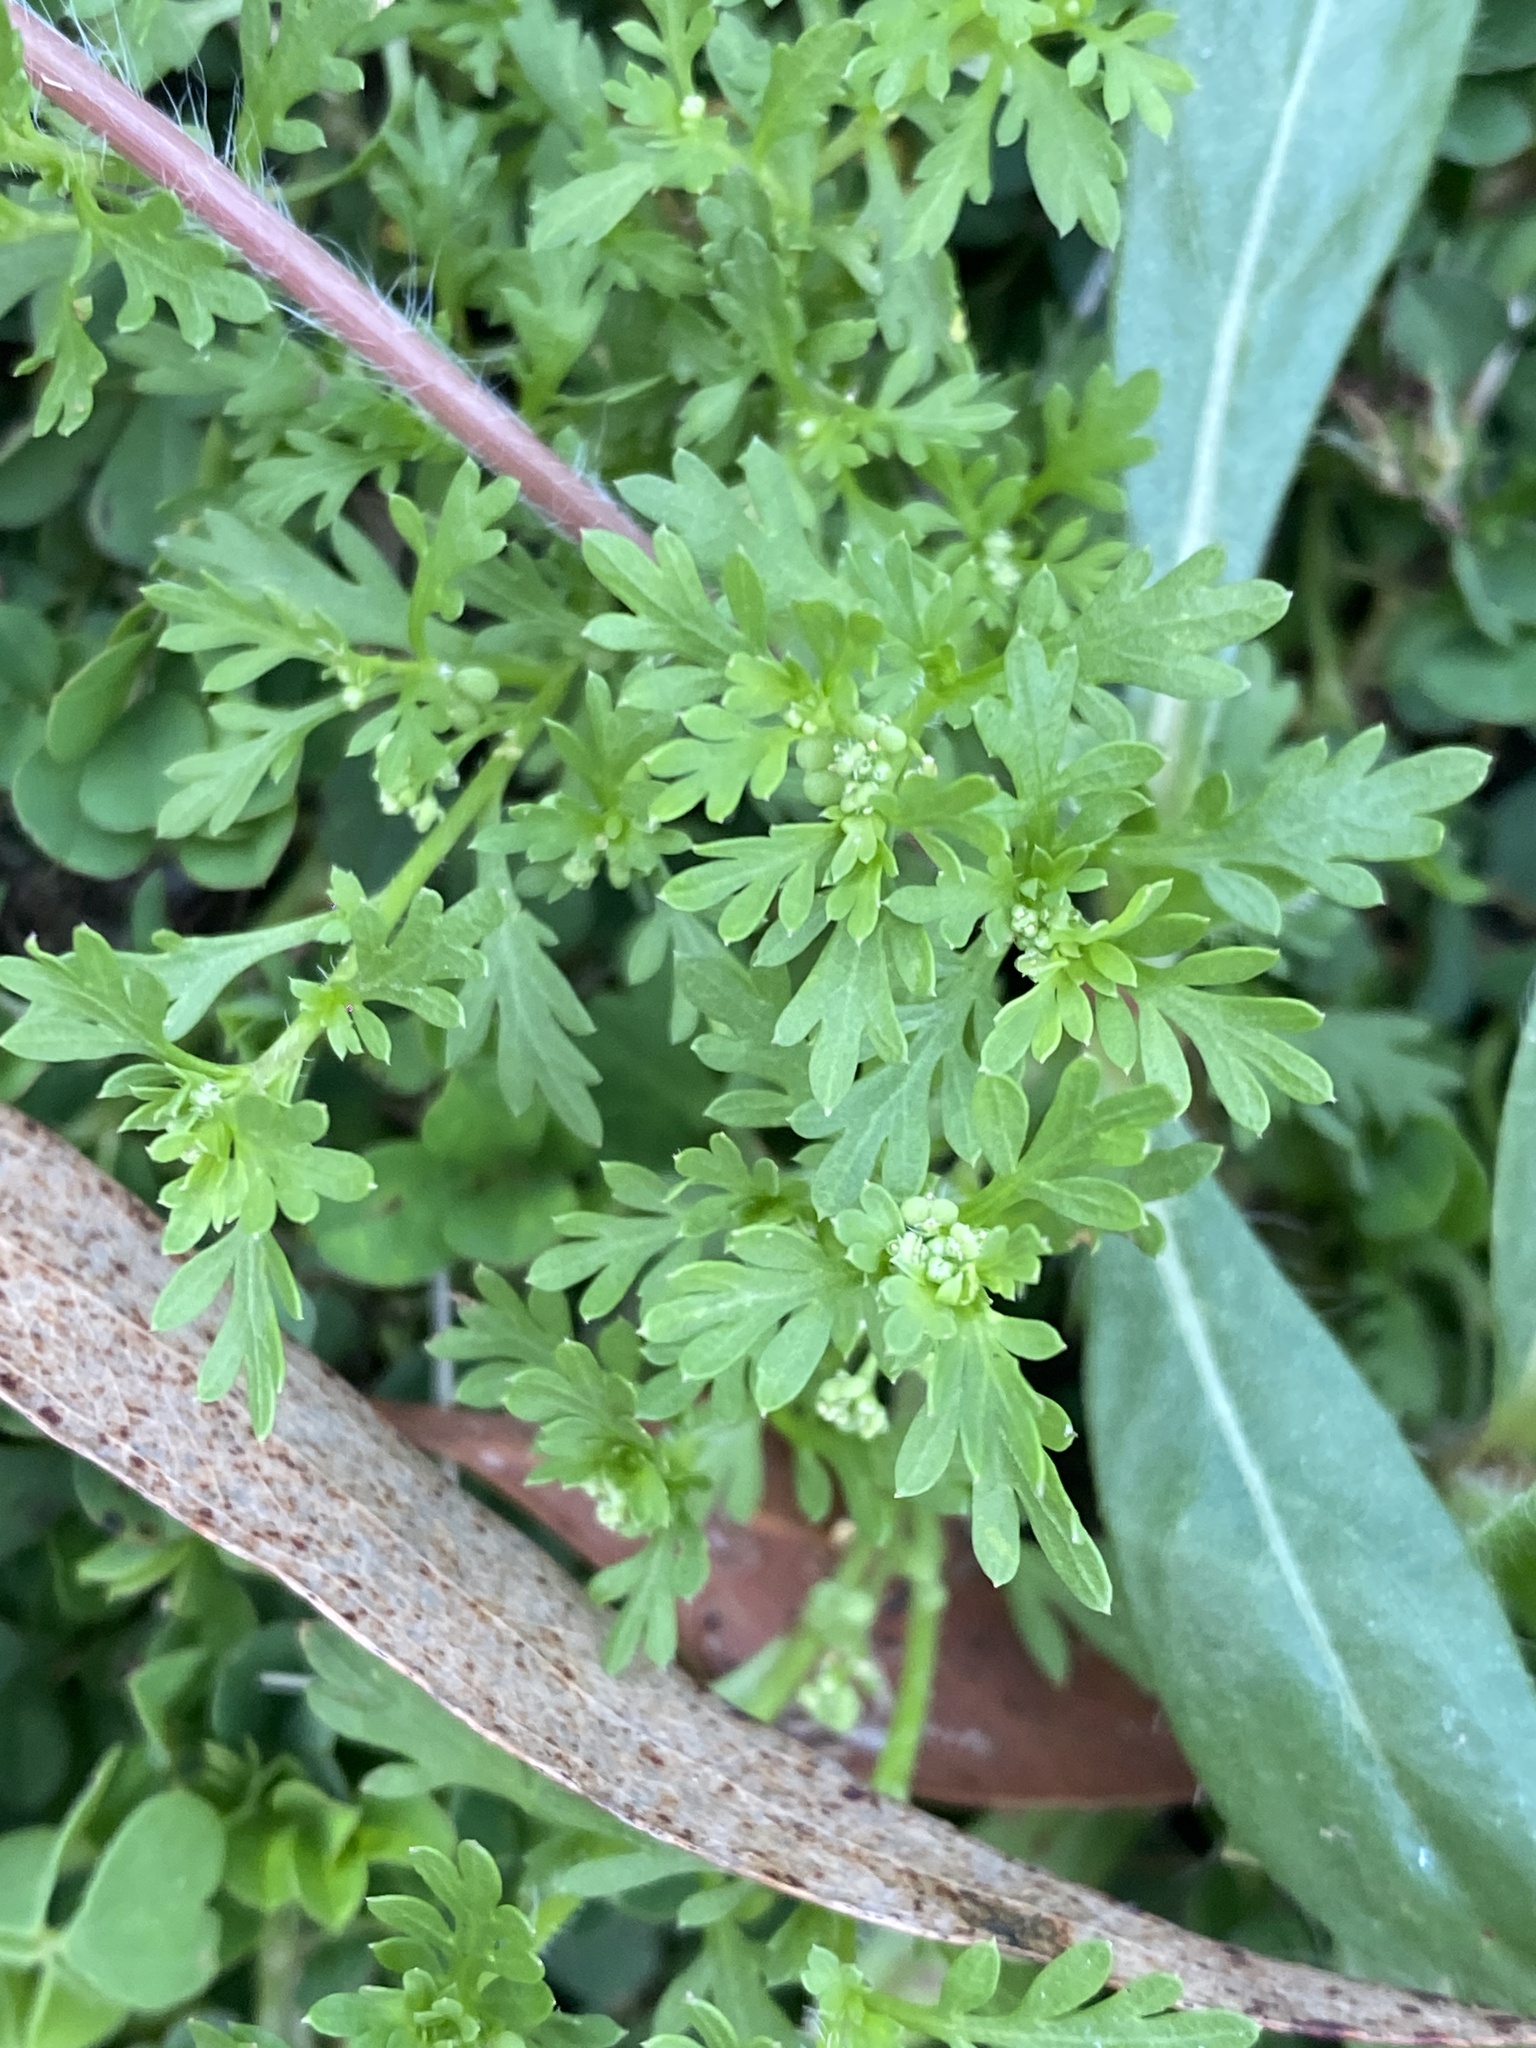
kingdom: Plantae
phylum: Tracheophyta
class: Magnoliopsida
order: Brassicales
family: Brassicaceae
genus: Lepidium
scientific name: Lepidium didymum
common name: Lesser swinecress
